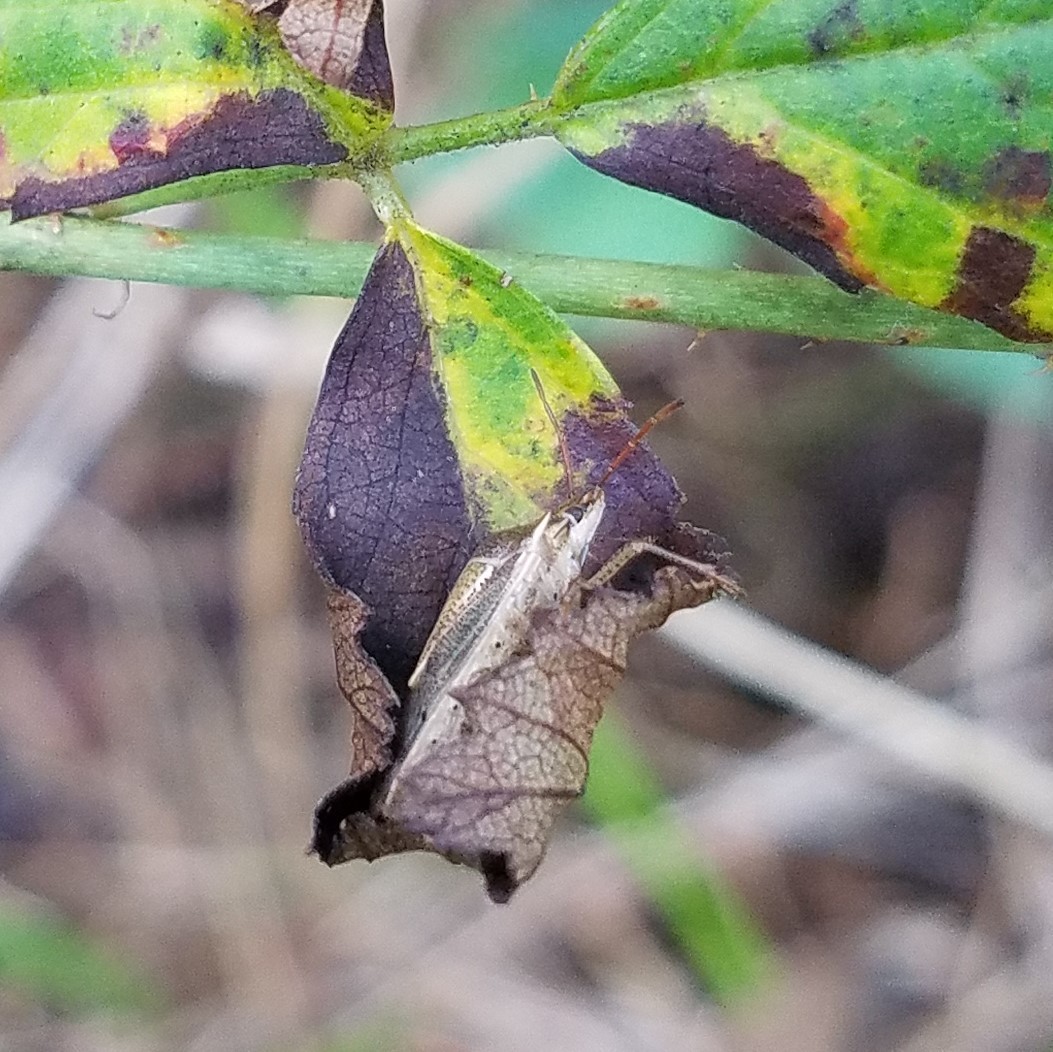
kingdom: Animalia
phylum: Arthropoda
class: Insecta
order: Hemiptera
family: Pentatomidae
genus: Oebalus
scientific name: Oebalus pugnax
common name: Rice stink bug
